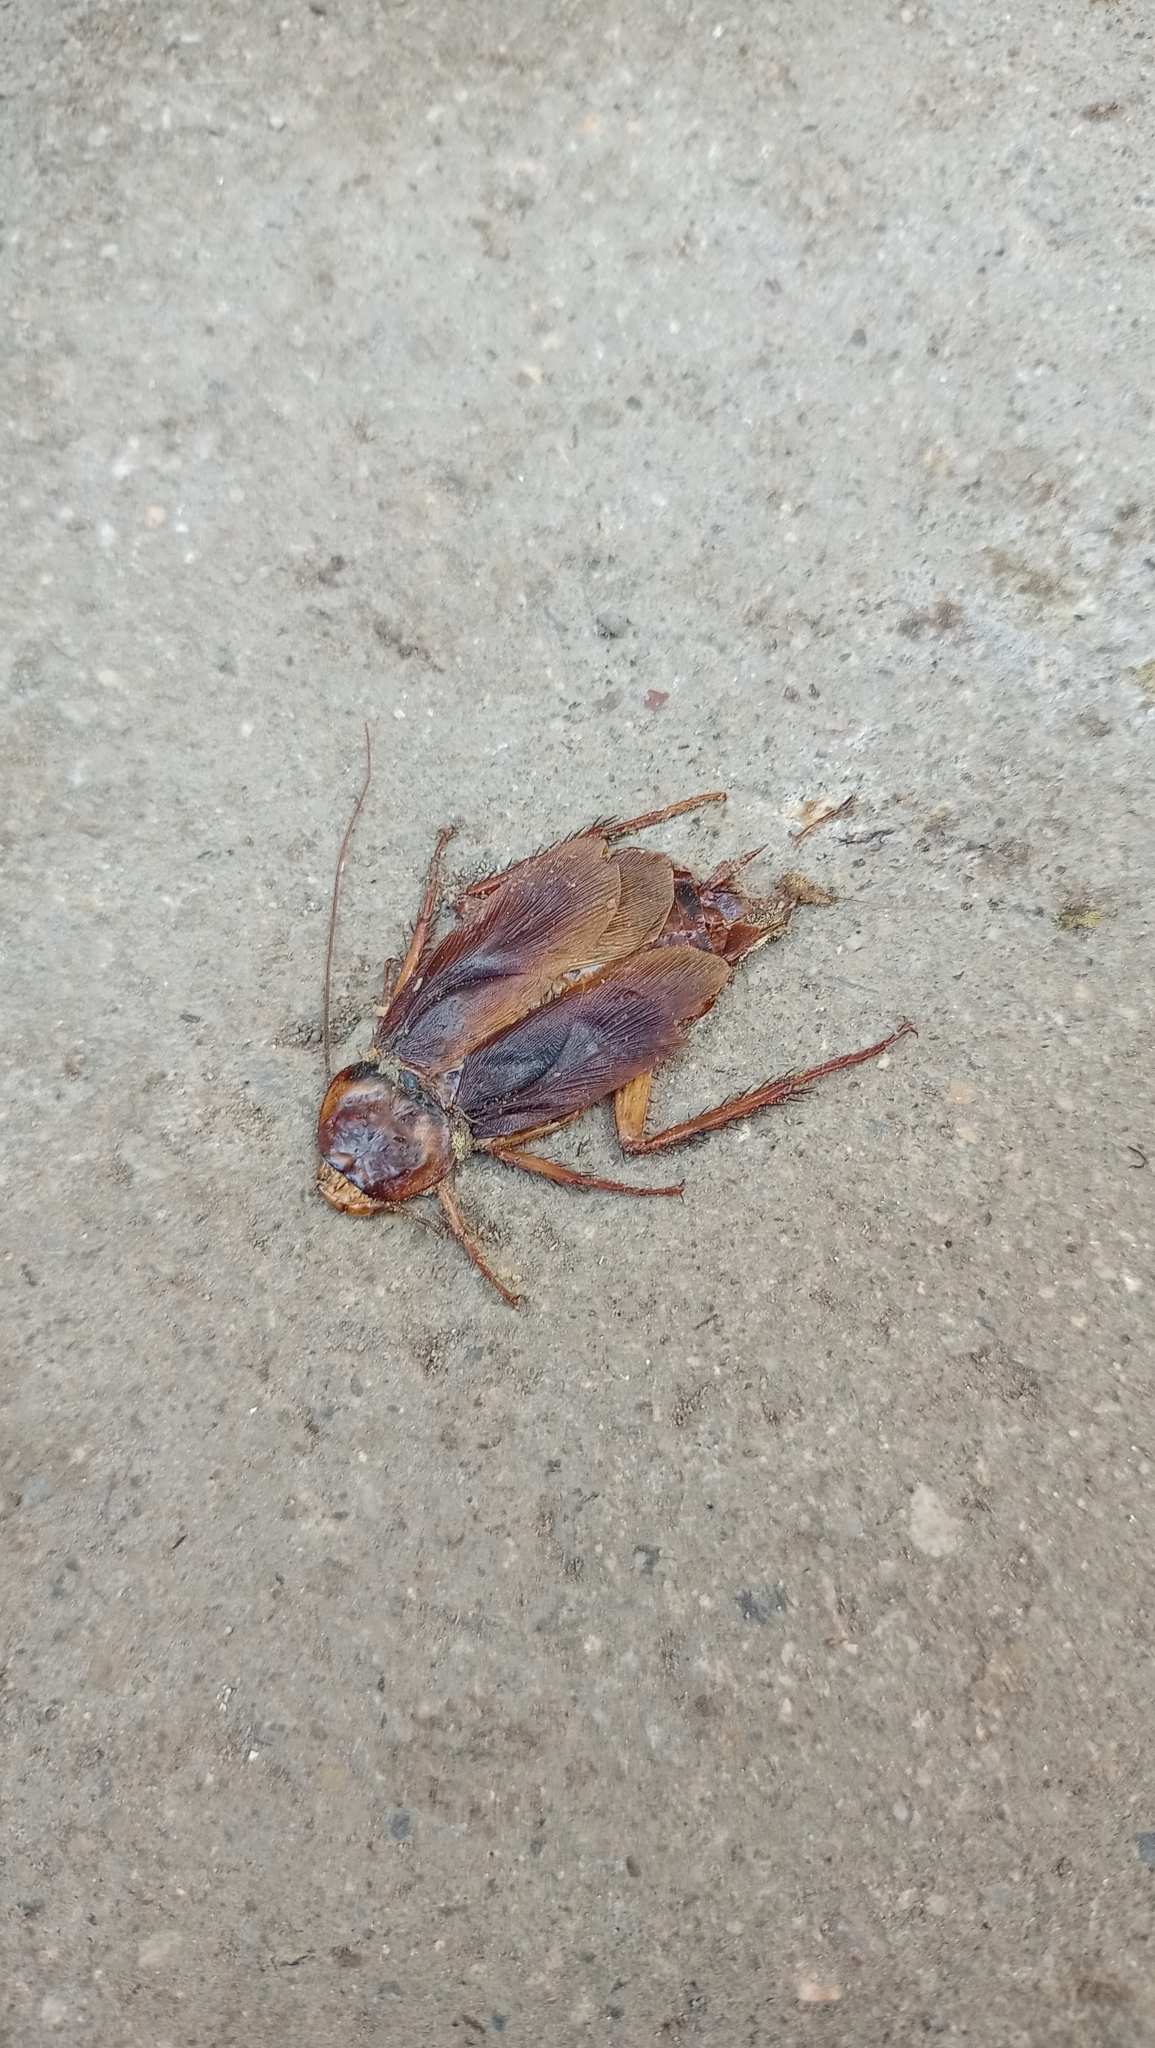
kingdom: Animalia
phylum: Arthropoda
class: Insecta
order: Blattodea
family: Blattidae
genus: Periplaneta
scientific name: Periplaneta americana
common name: American cockroach
